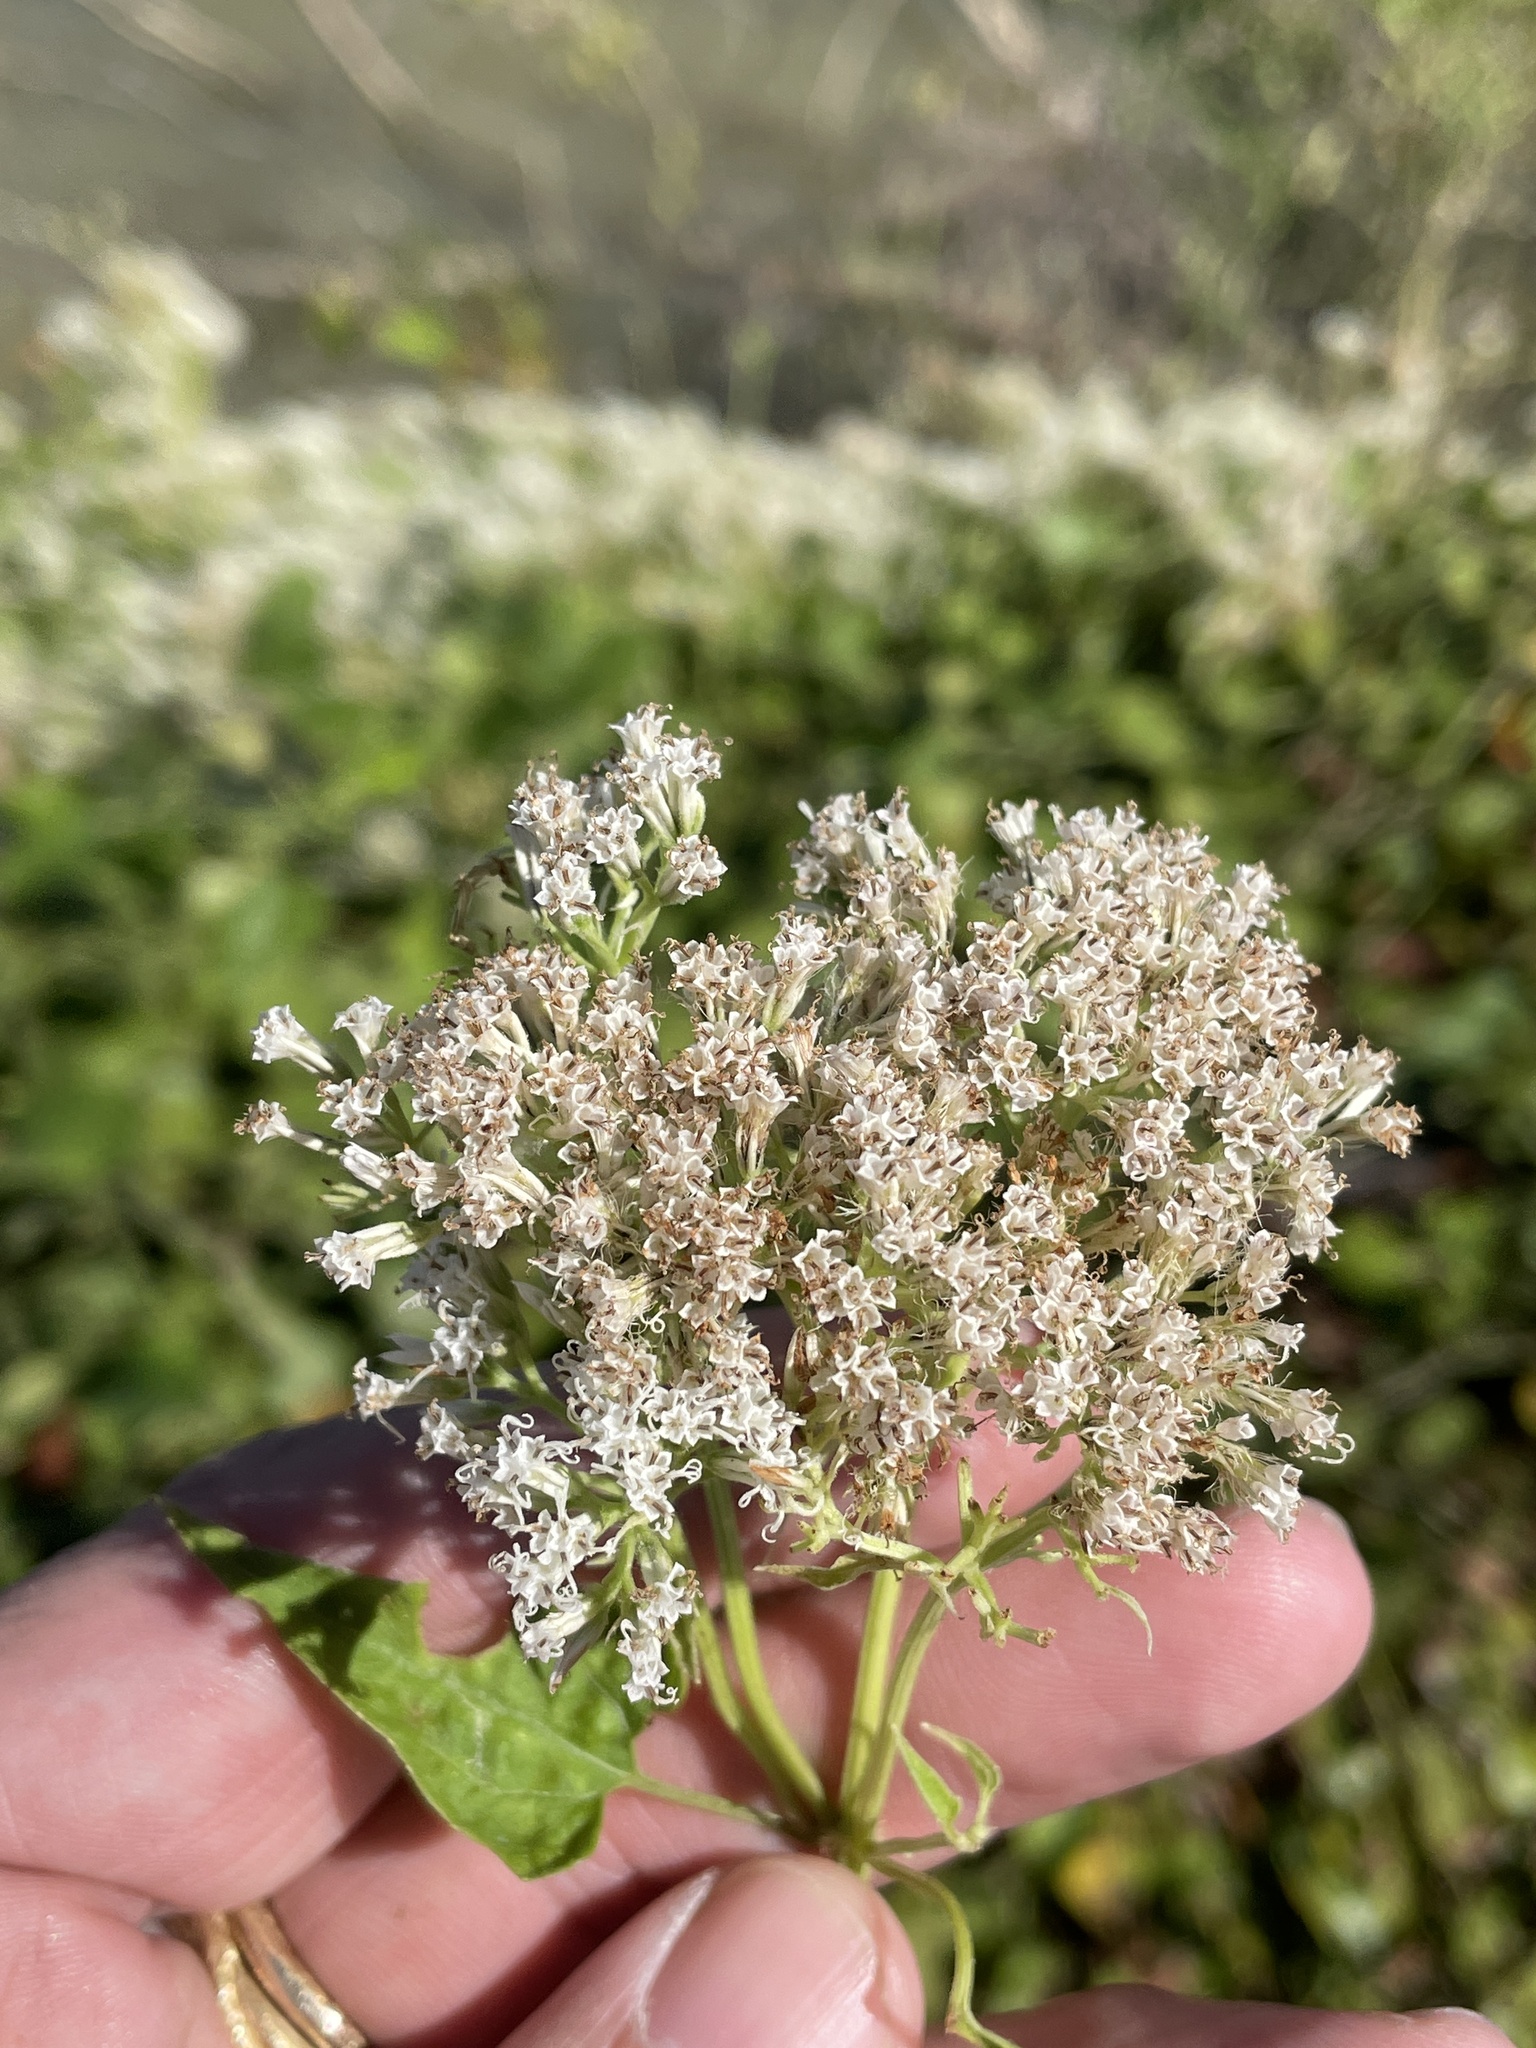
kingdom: Plantae
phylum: Tracheophyta
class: Magnoliopsida
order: Asterales
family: Asteraceae
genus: Mikania
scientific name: Mikania scandens
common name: Climbing hempvine
